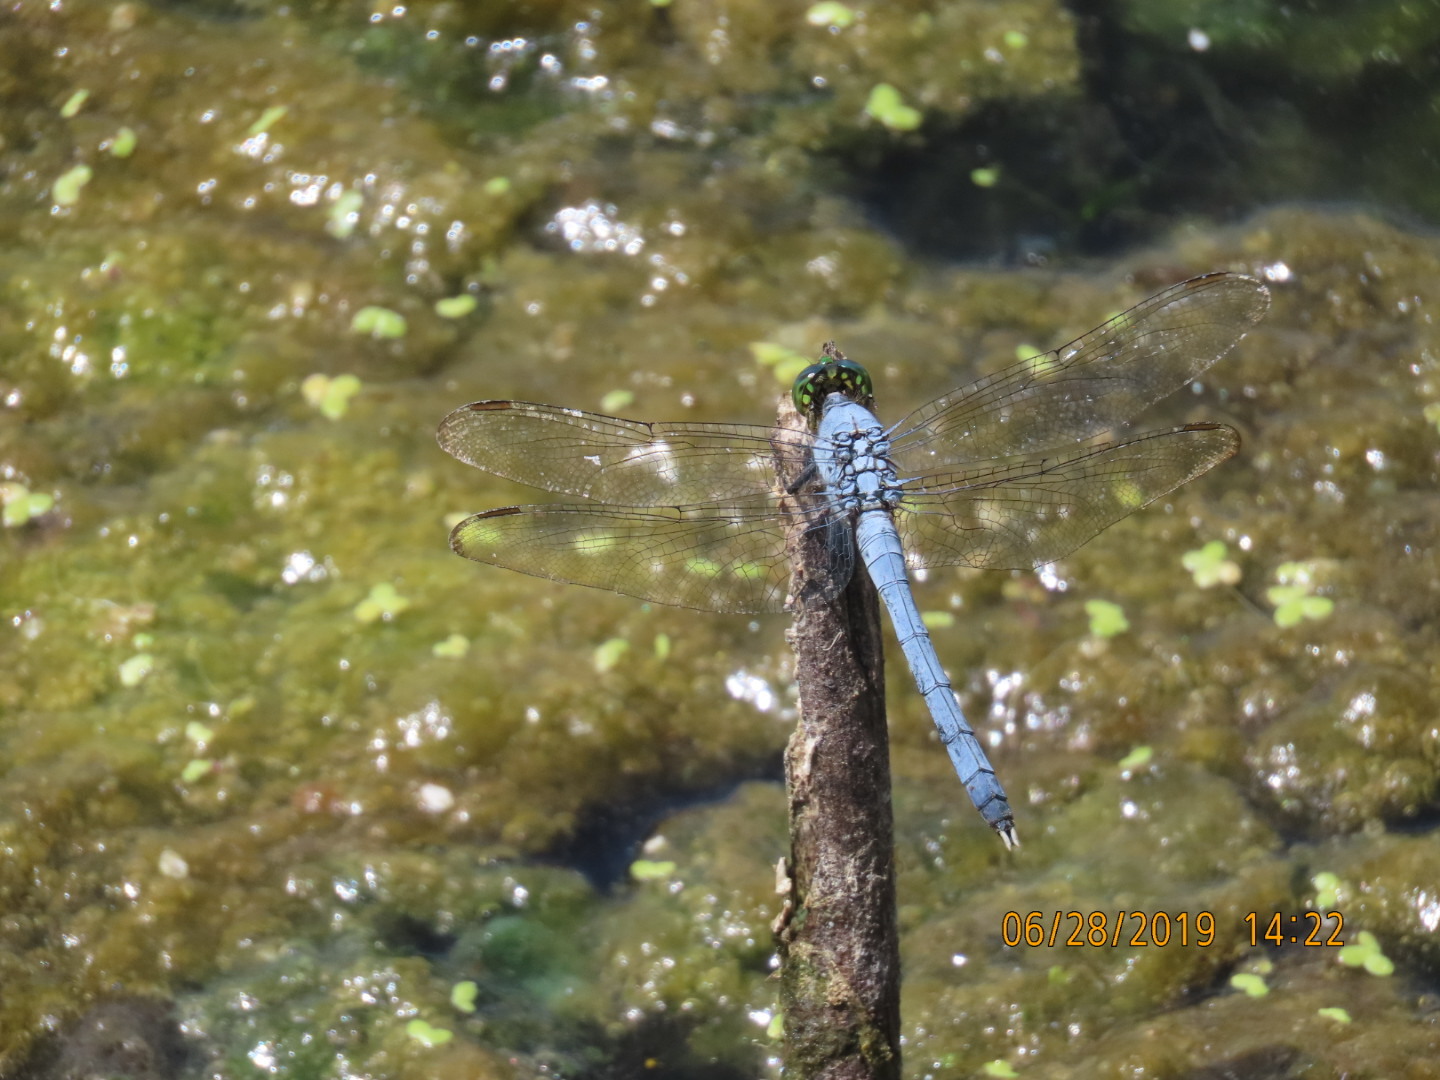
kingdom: Animalia
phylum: Arthropoda
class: Insecta
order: Odonata
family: Libellulidae
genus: Erythemis
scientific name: Erythemis simplicicollis
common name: Eastern pondhawk
